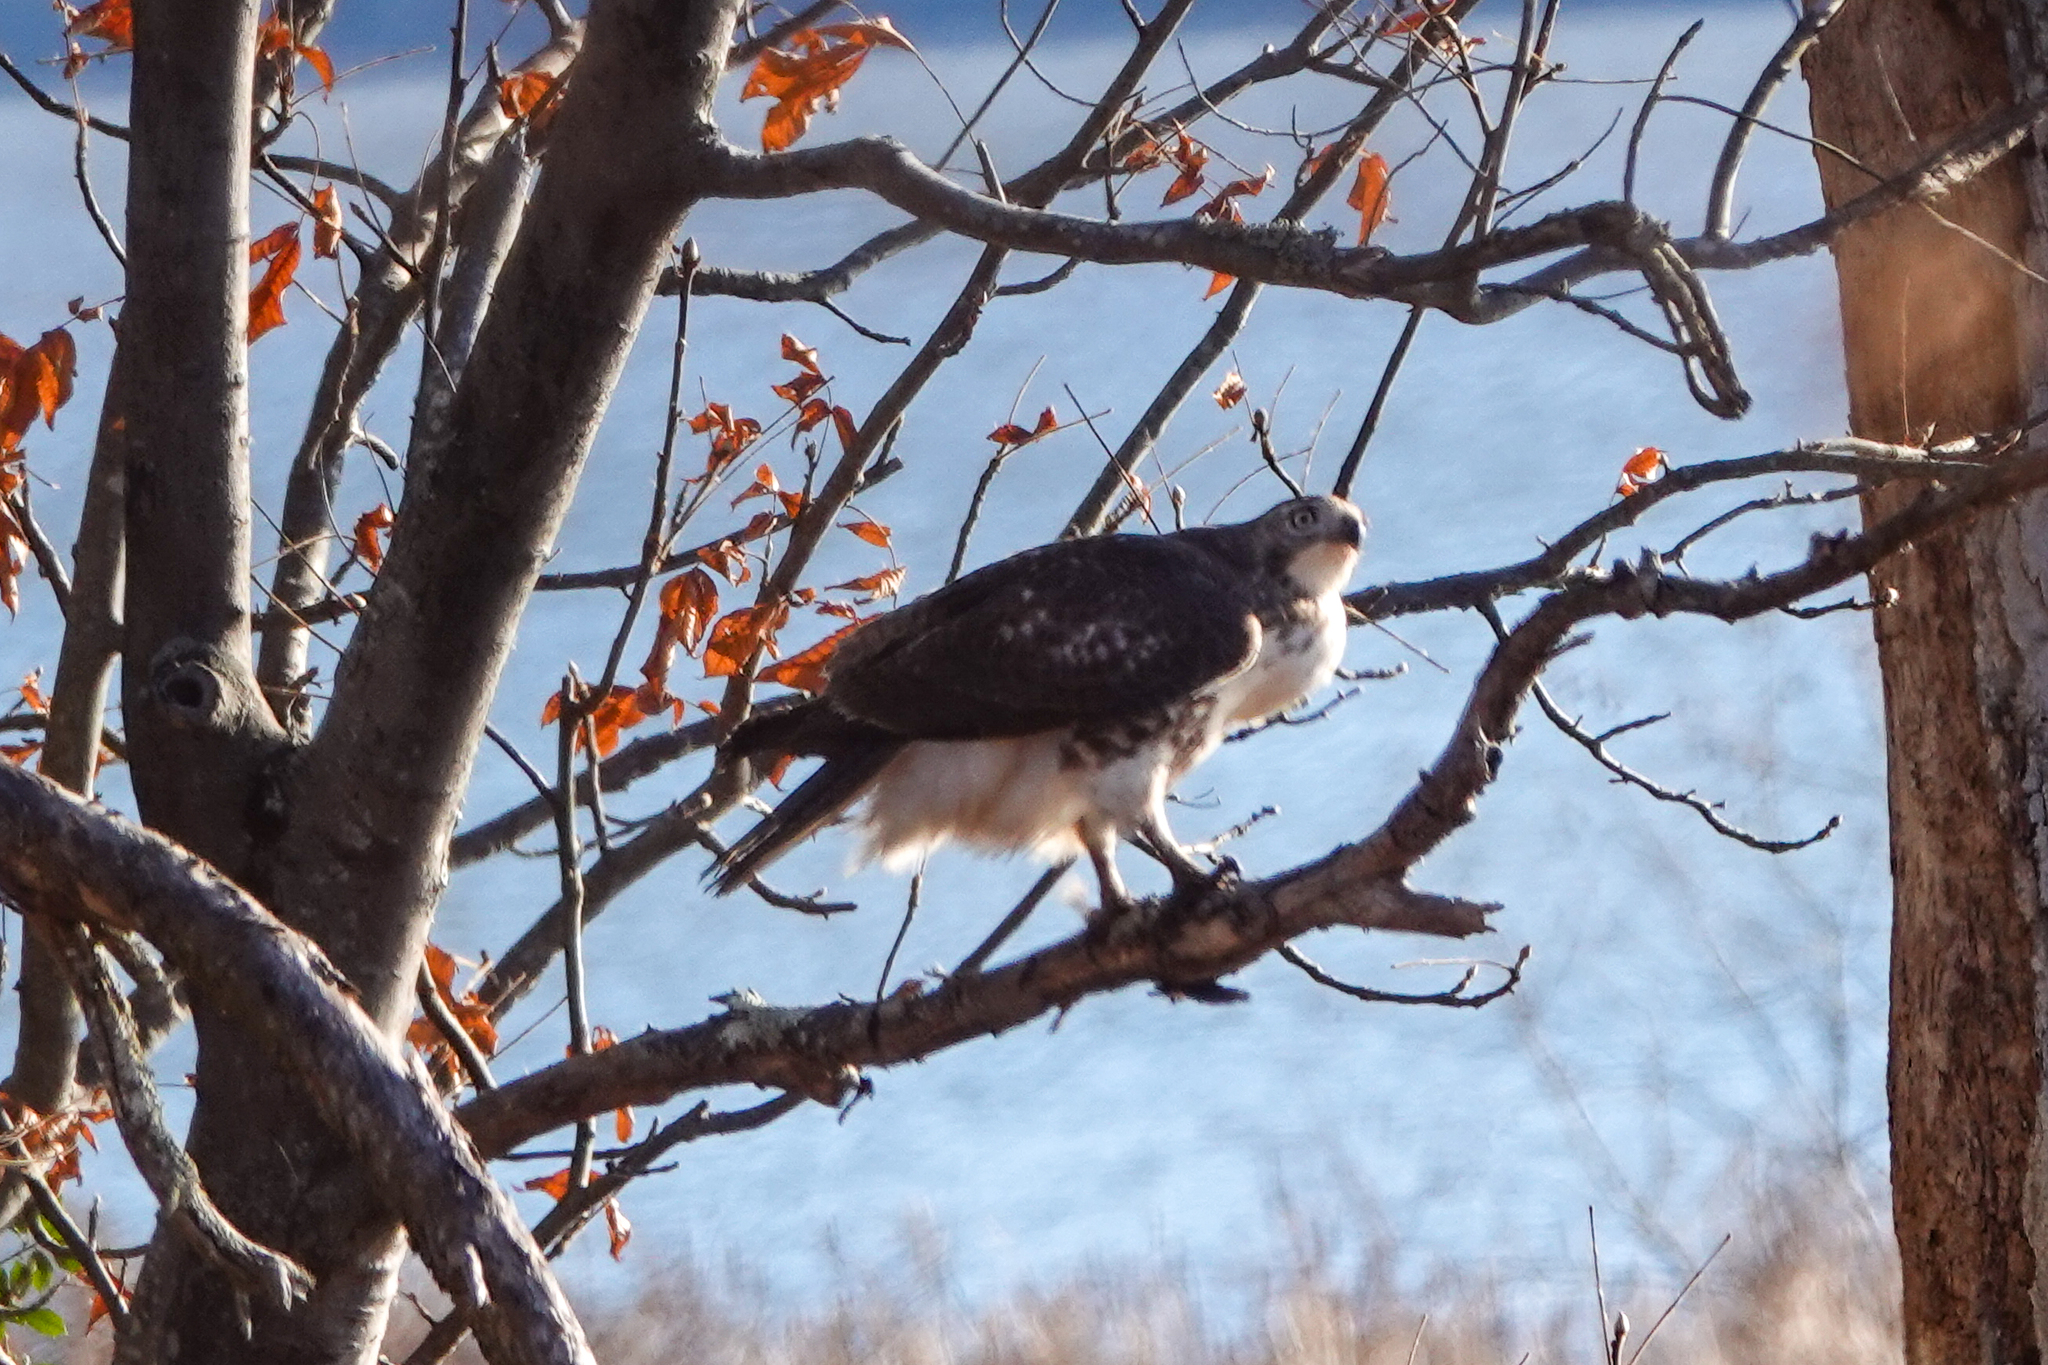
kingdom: Animalia
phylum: Chordata
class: Aves
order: Accipitriformes
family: Accipitridae
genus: Buteo
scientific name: Buteo jamaicensis
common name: Red-tailed hawk
